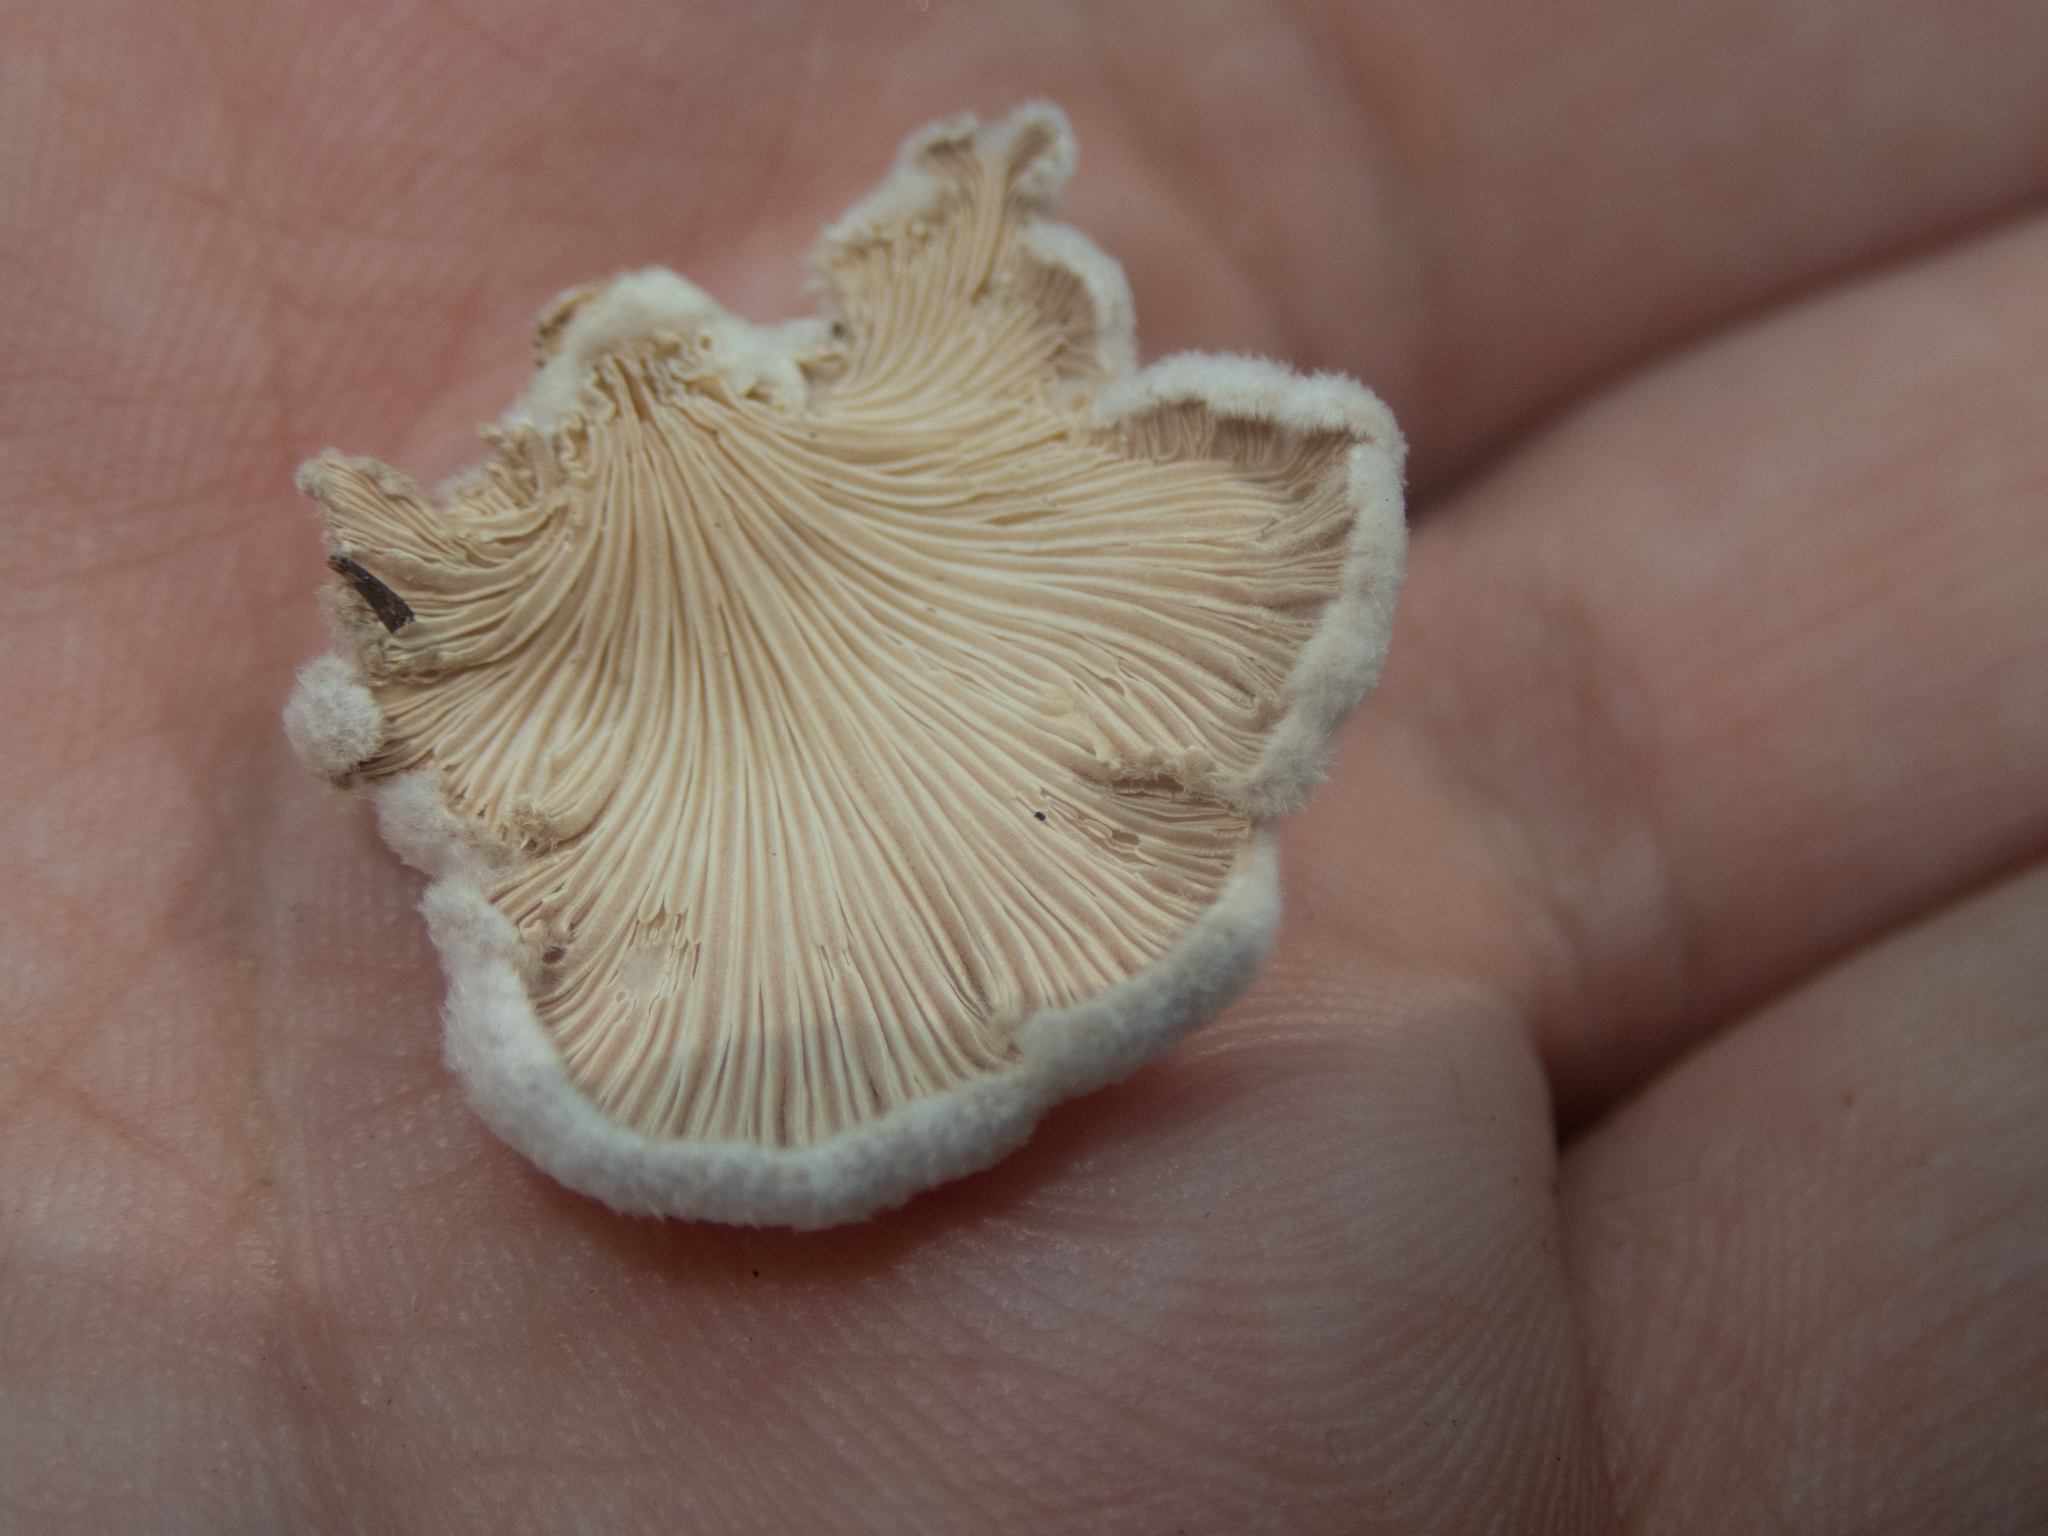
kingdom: Fungi
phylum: Basidiomycota
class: Agaricomycetes
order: Agaricales
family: Schizophyllaceae
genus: Schizophyllum
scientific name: Schizophyllum commune
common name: Common porecrust
